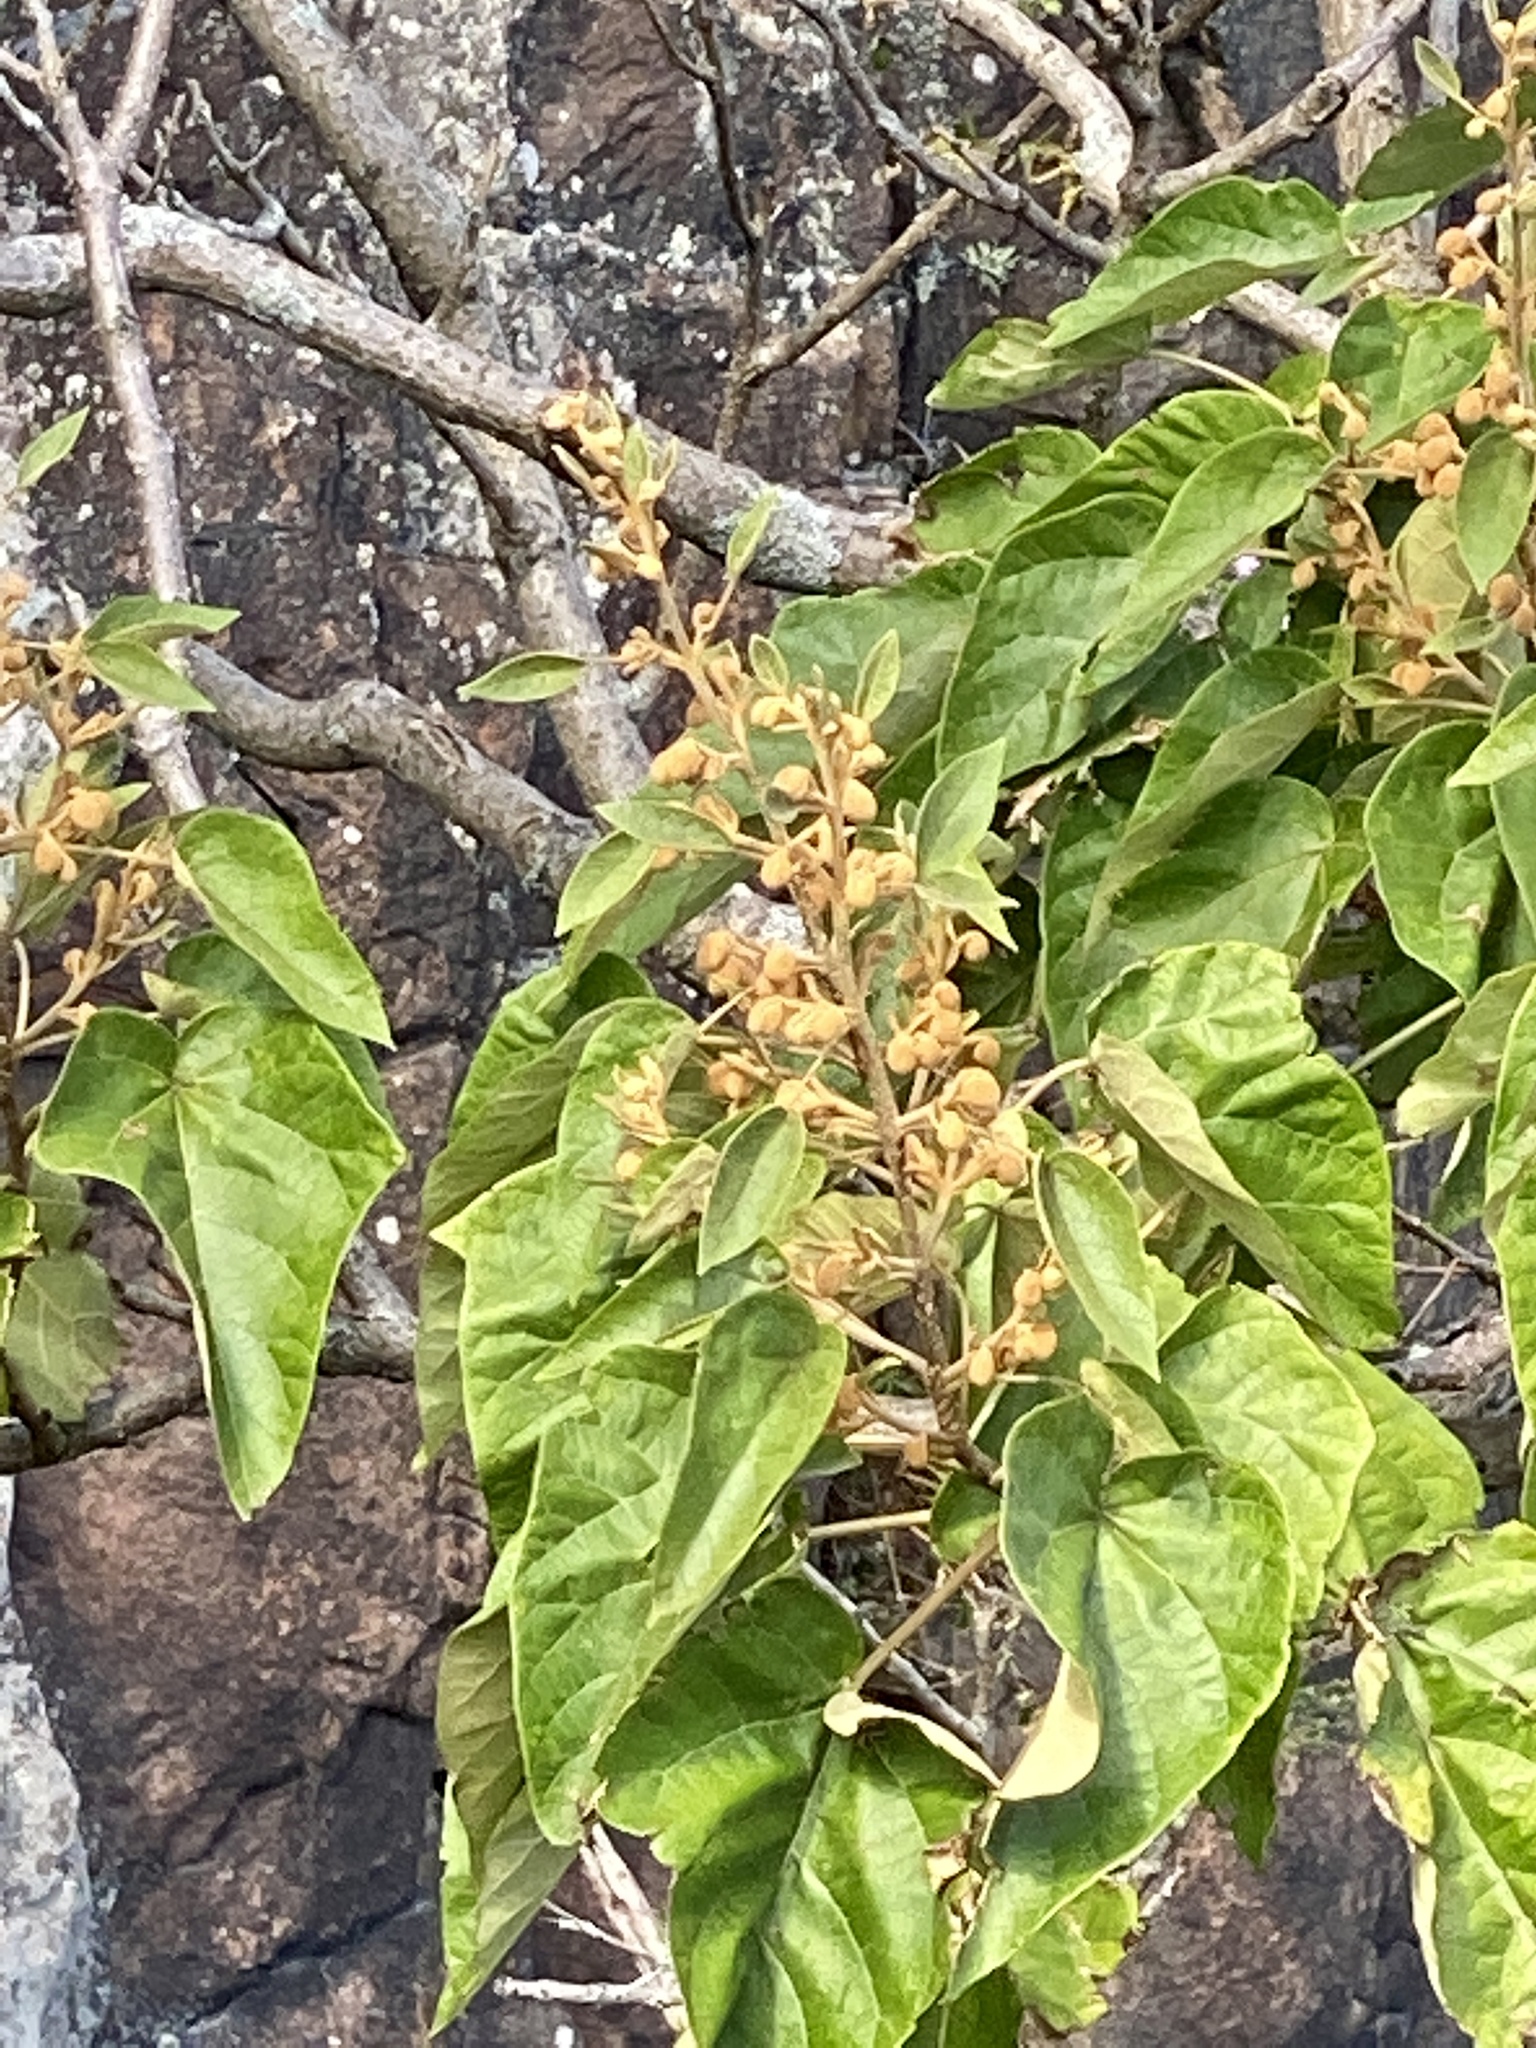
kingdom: Plantae
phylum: Tracheophyta
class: Magnoliopsida
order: Lamiales
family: Paulowniaceae
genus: Paulownia
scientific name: Paulownia tomentosa
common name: Foxglove-tree
